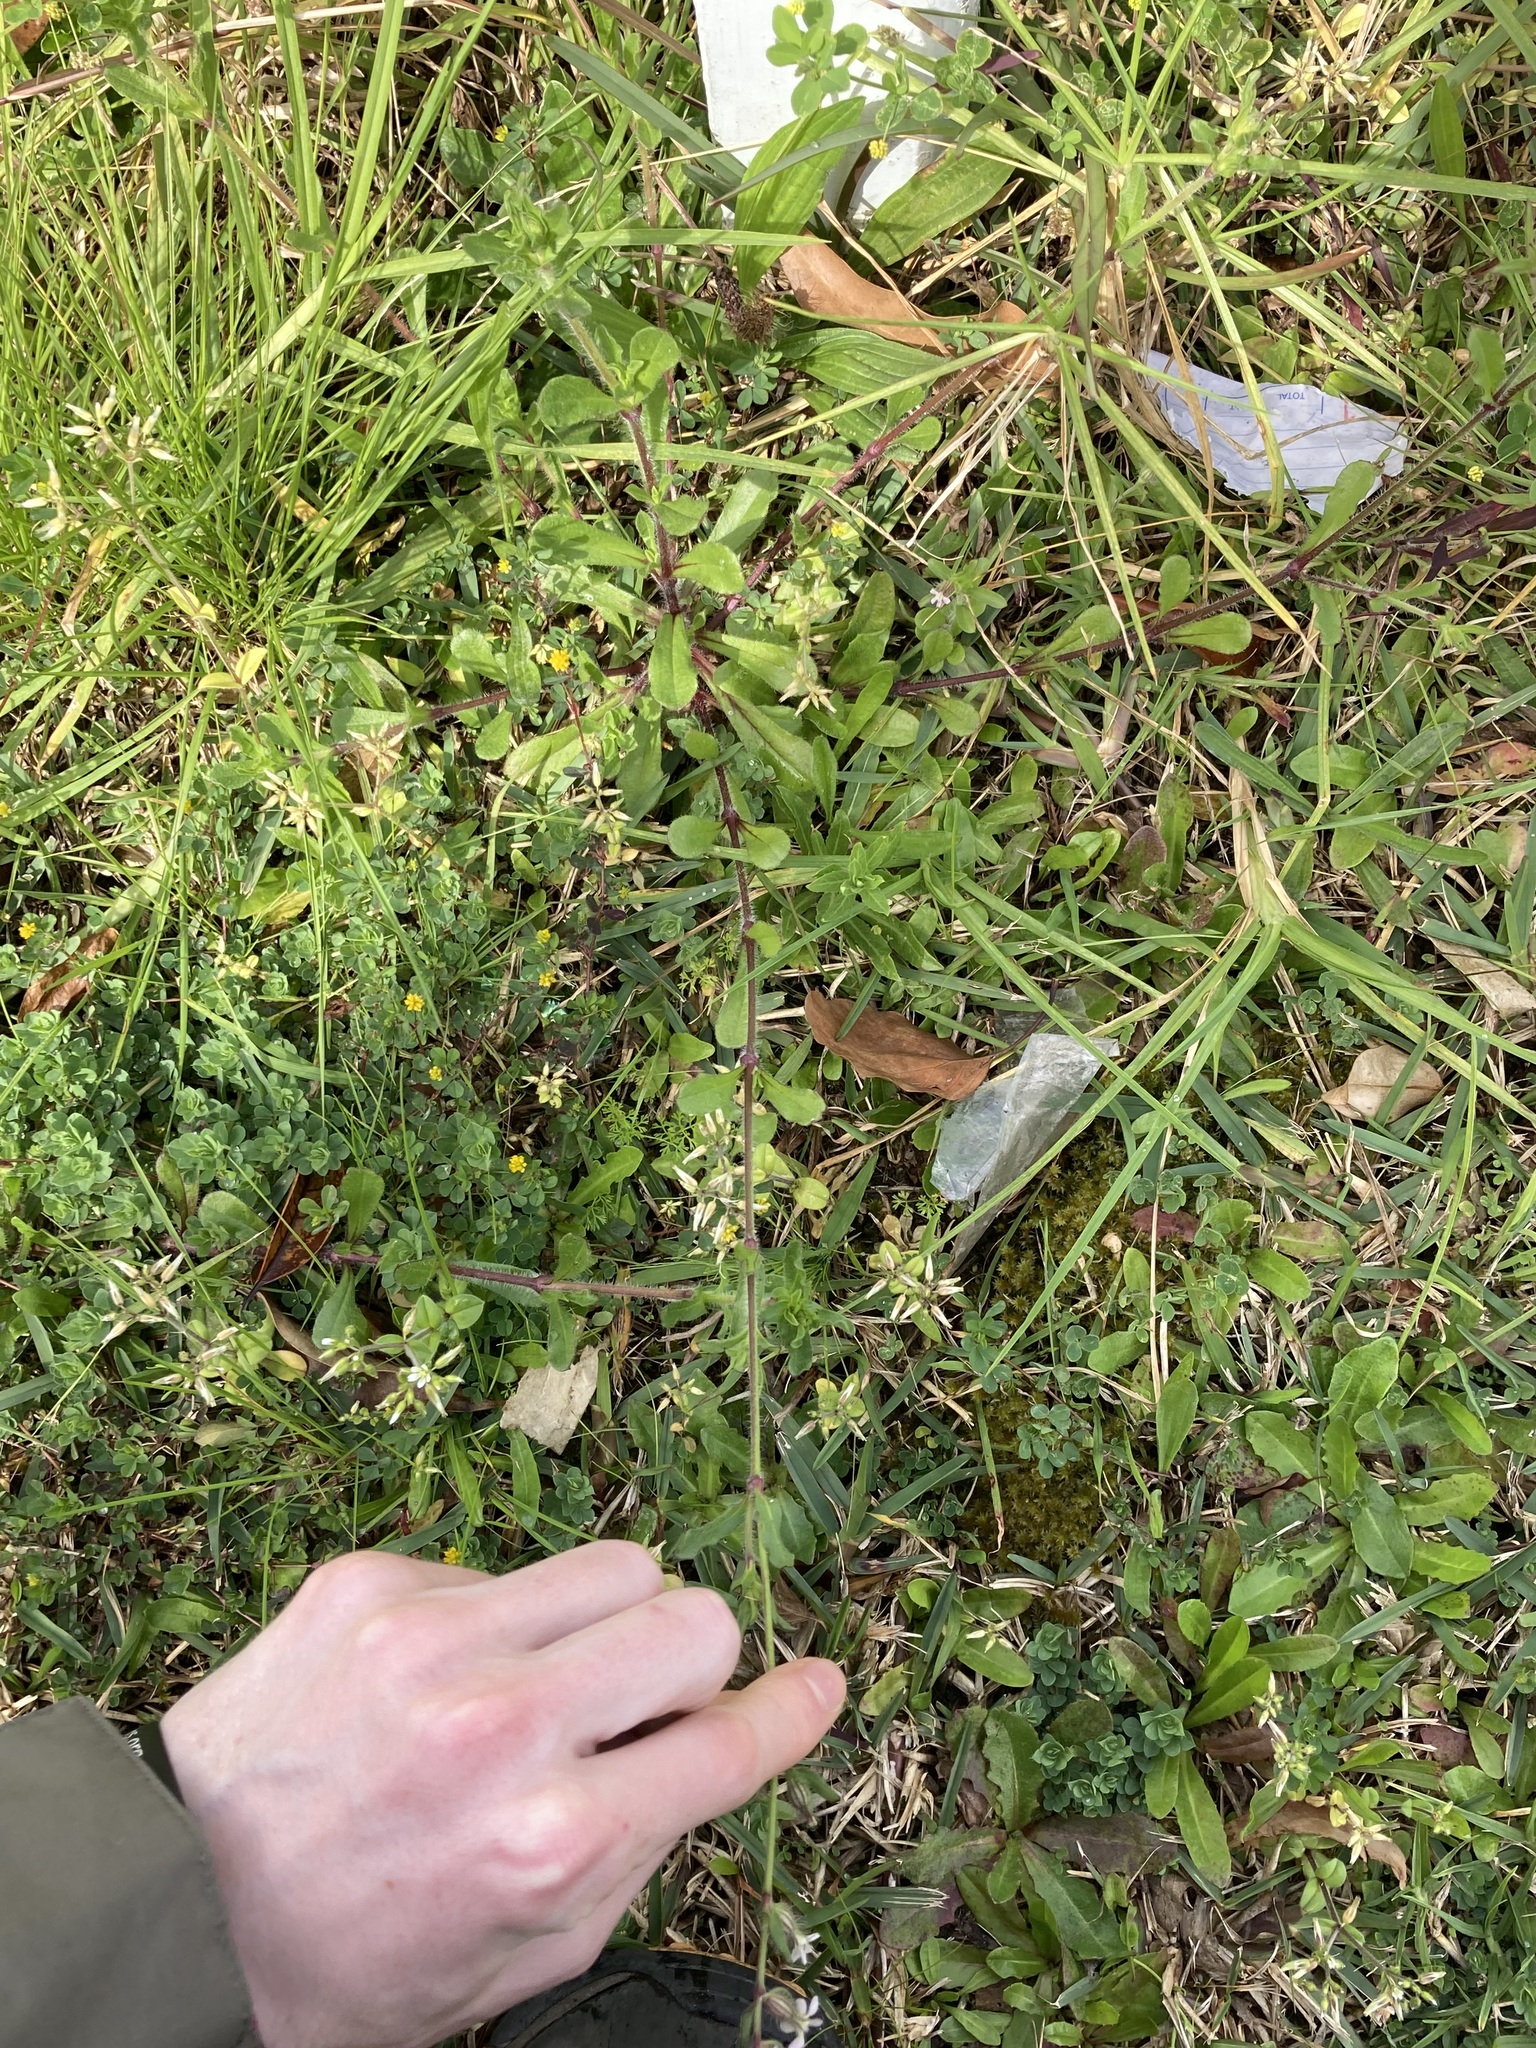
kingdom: Plantae
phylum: Tracheophyta
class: Magnoliopsida
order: Caryophyllales
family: Caryophyllaceae
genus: Silene
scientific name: Silene gallica
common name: Small-flowered catchfly
